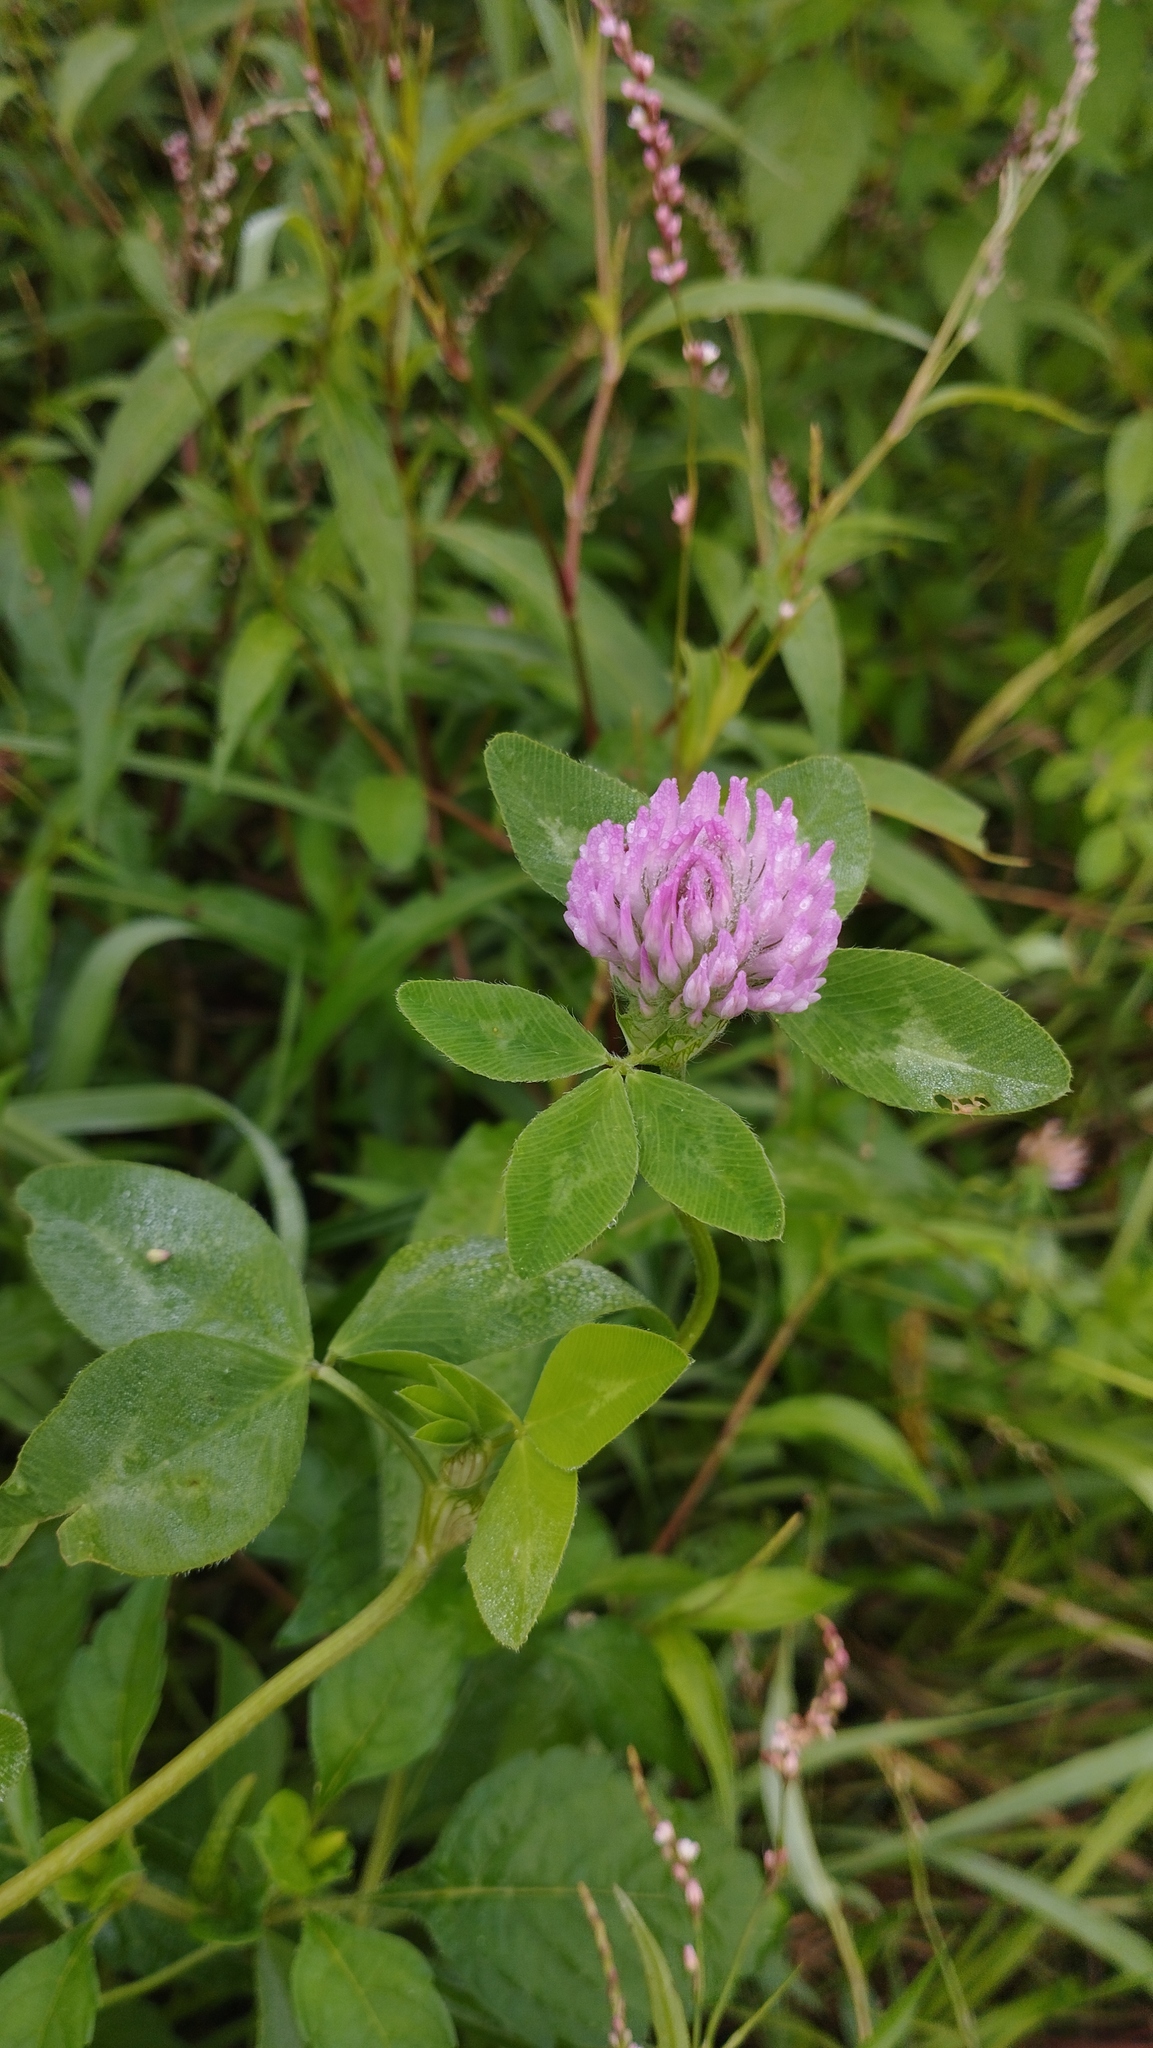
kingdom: Plantae
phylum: Tracheophyta
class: Magnoliopsida
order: Fabales
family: Fabaceae
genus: Trifolium
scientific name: Trifolium pratense
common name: Red clover
